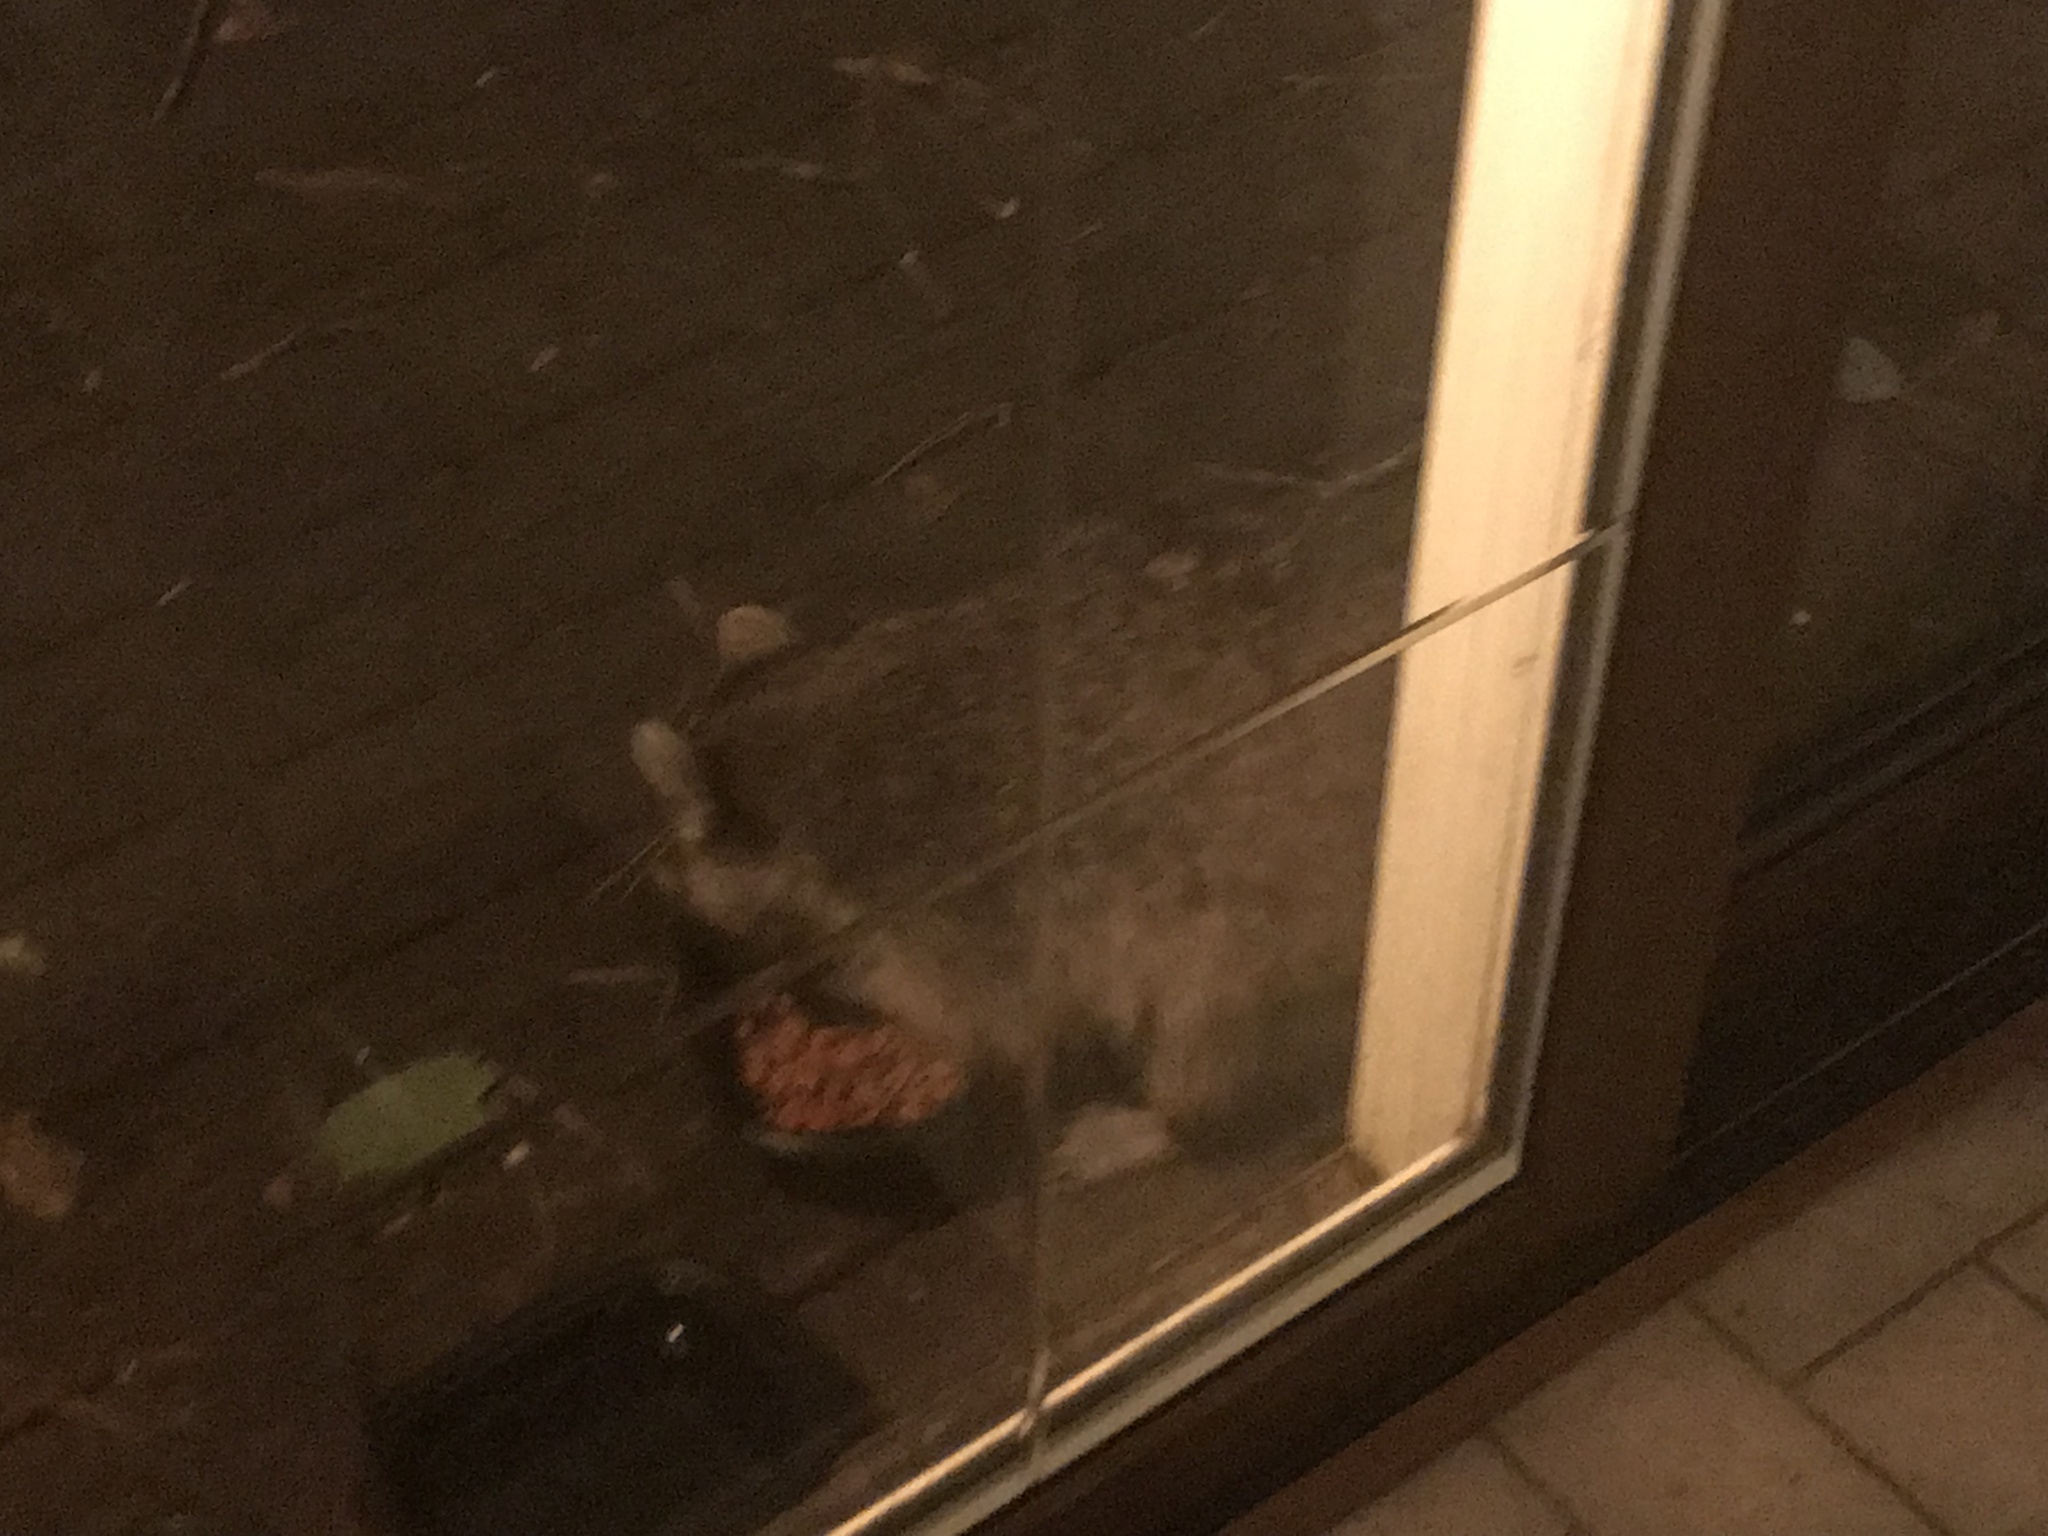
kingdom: Animalia
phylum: Chordata
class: Mammalia
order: Carnivora
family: Procyonidae
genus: Procyon
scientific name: Procyon lotor
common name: Raccoon
